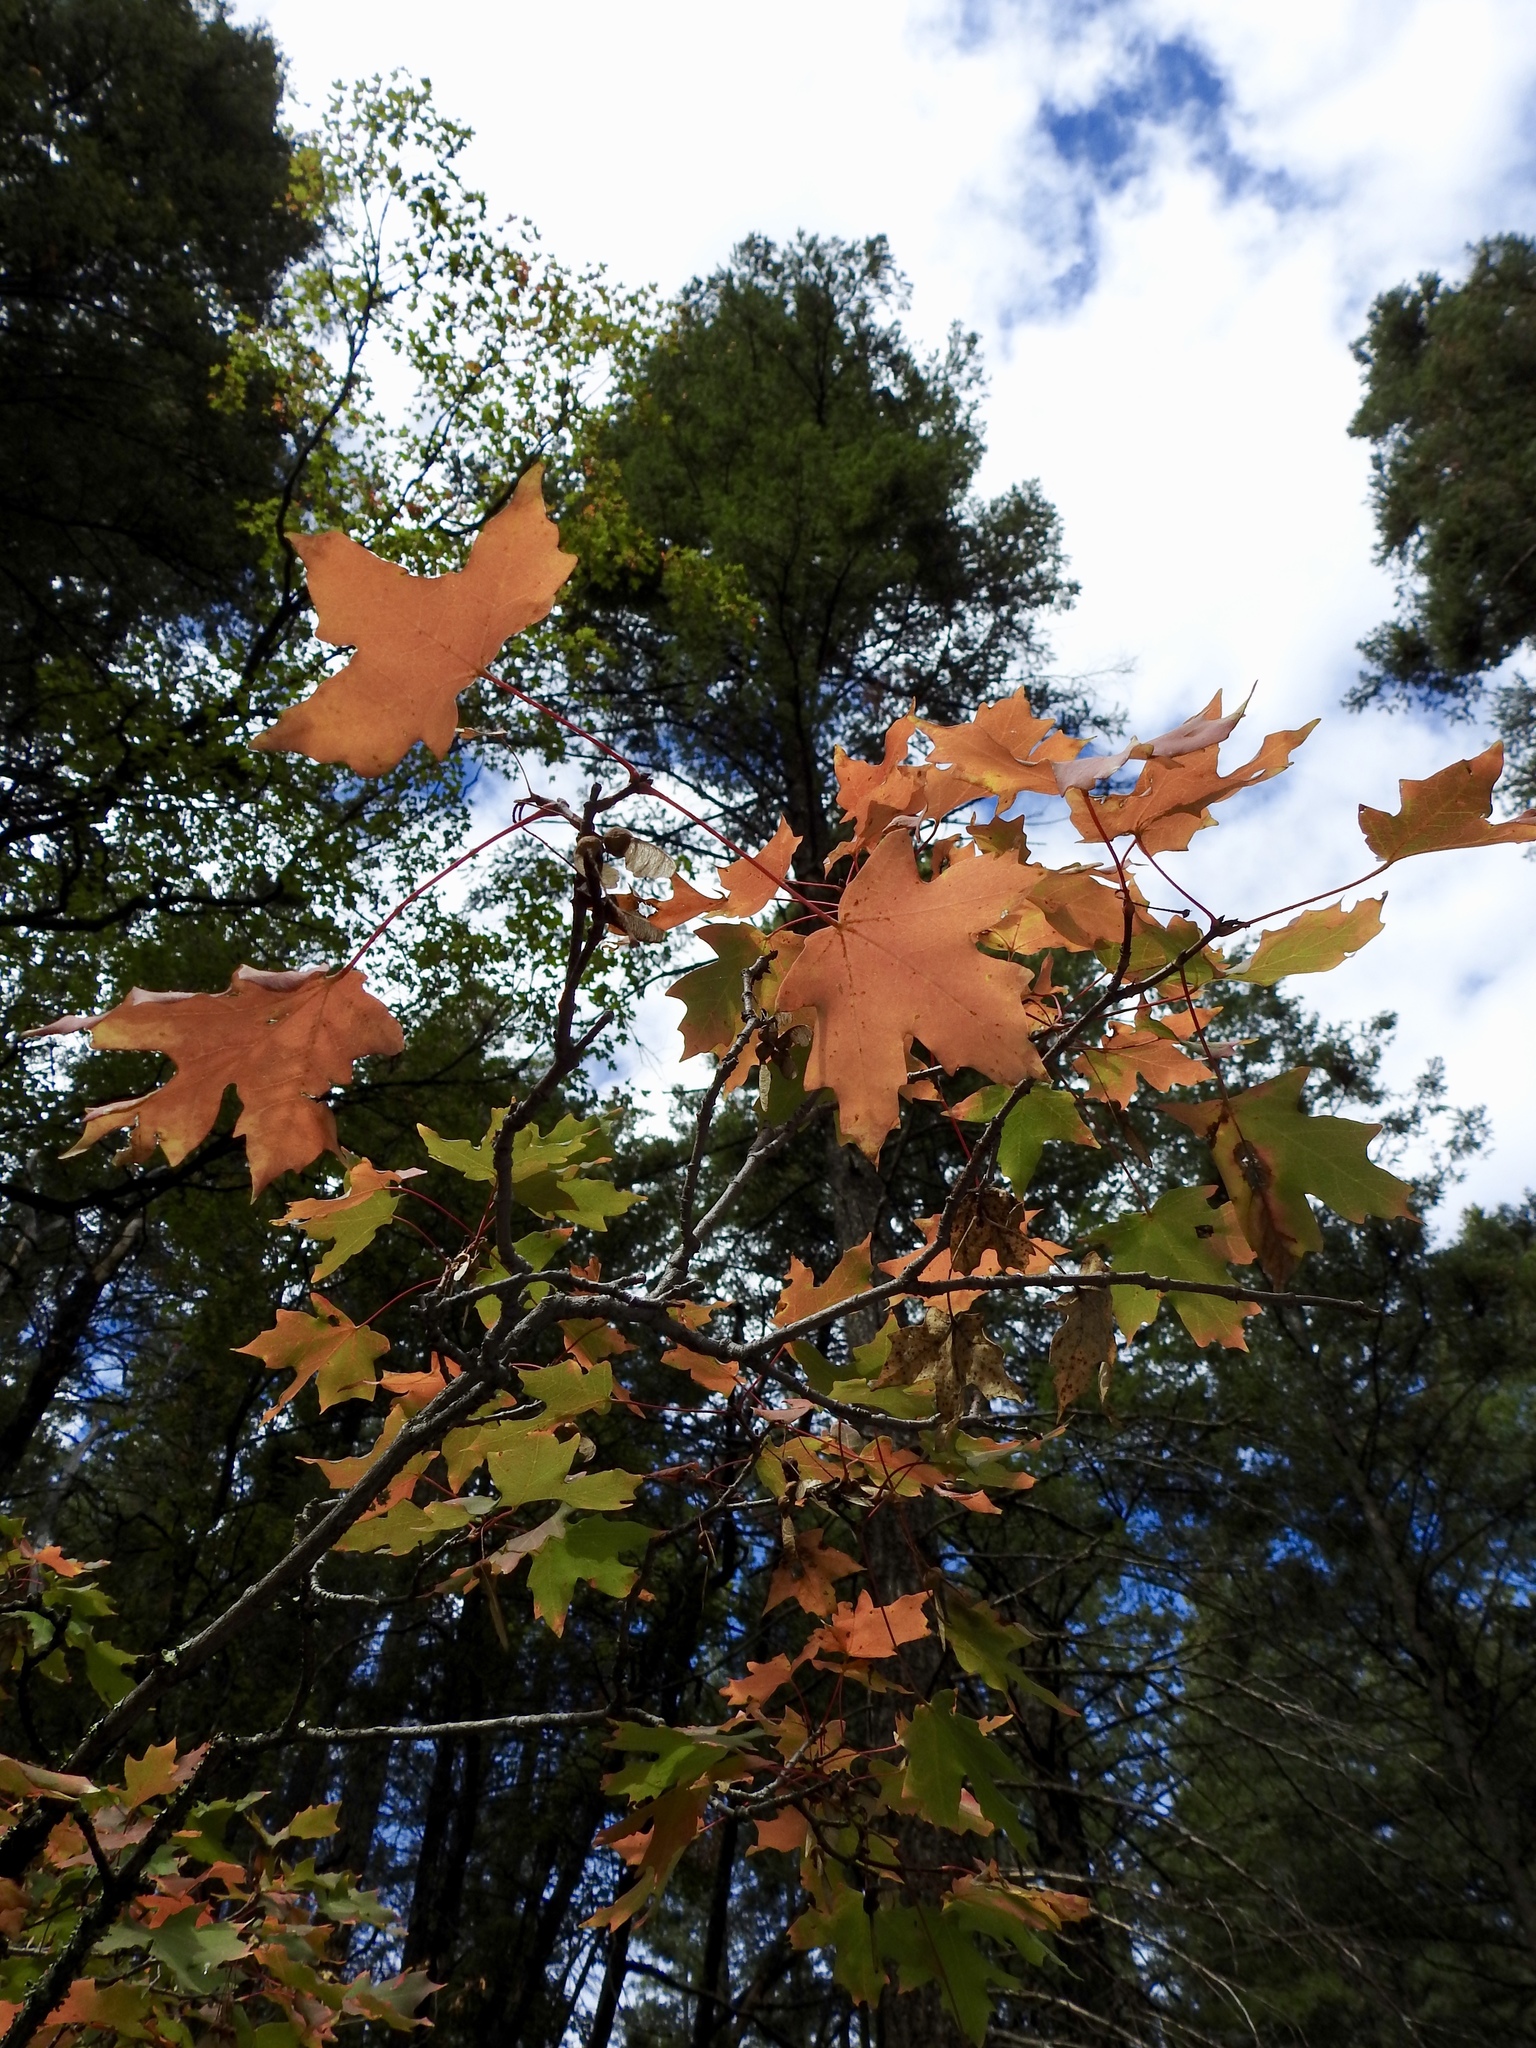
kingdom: Plantae
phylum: Tracheophyta
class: Magnoliopsida
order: Sapindales
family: Sapindaceae
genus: Acer
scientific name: Acer grandidentatum
